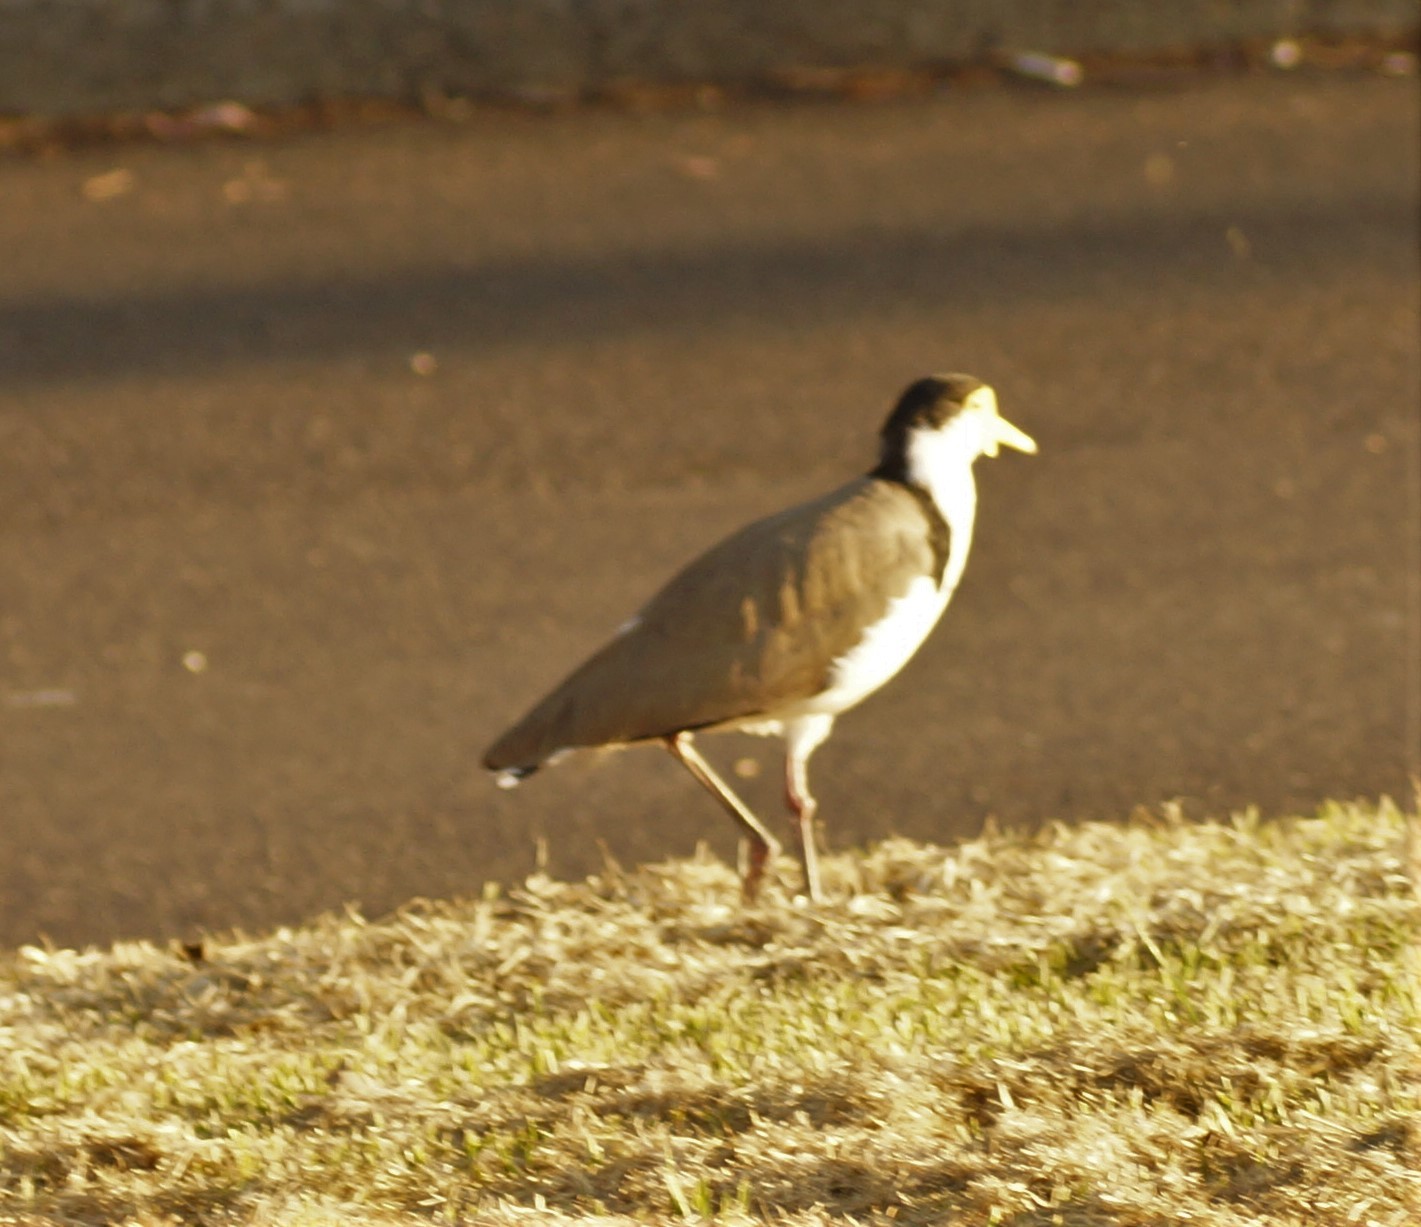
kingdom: Animalia
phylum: Chordata
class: Aves
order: Charadriiformes
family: Charadriidae
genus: Vanellus
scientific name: Vanellus miles
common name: Masked lapwing
